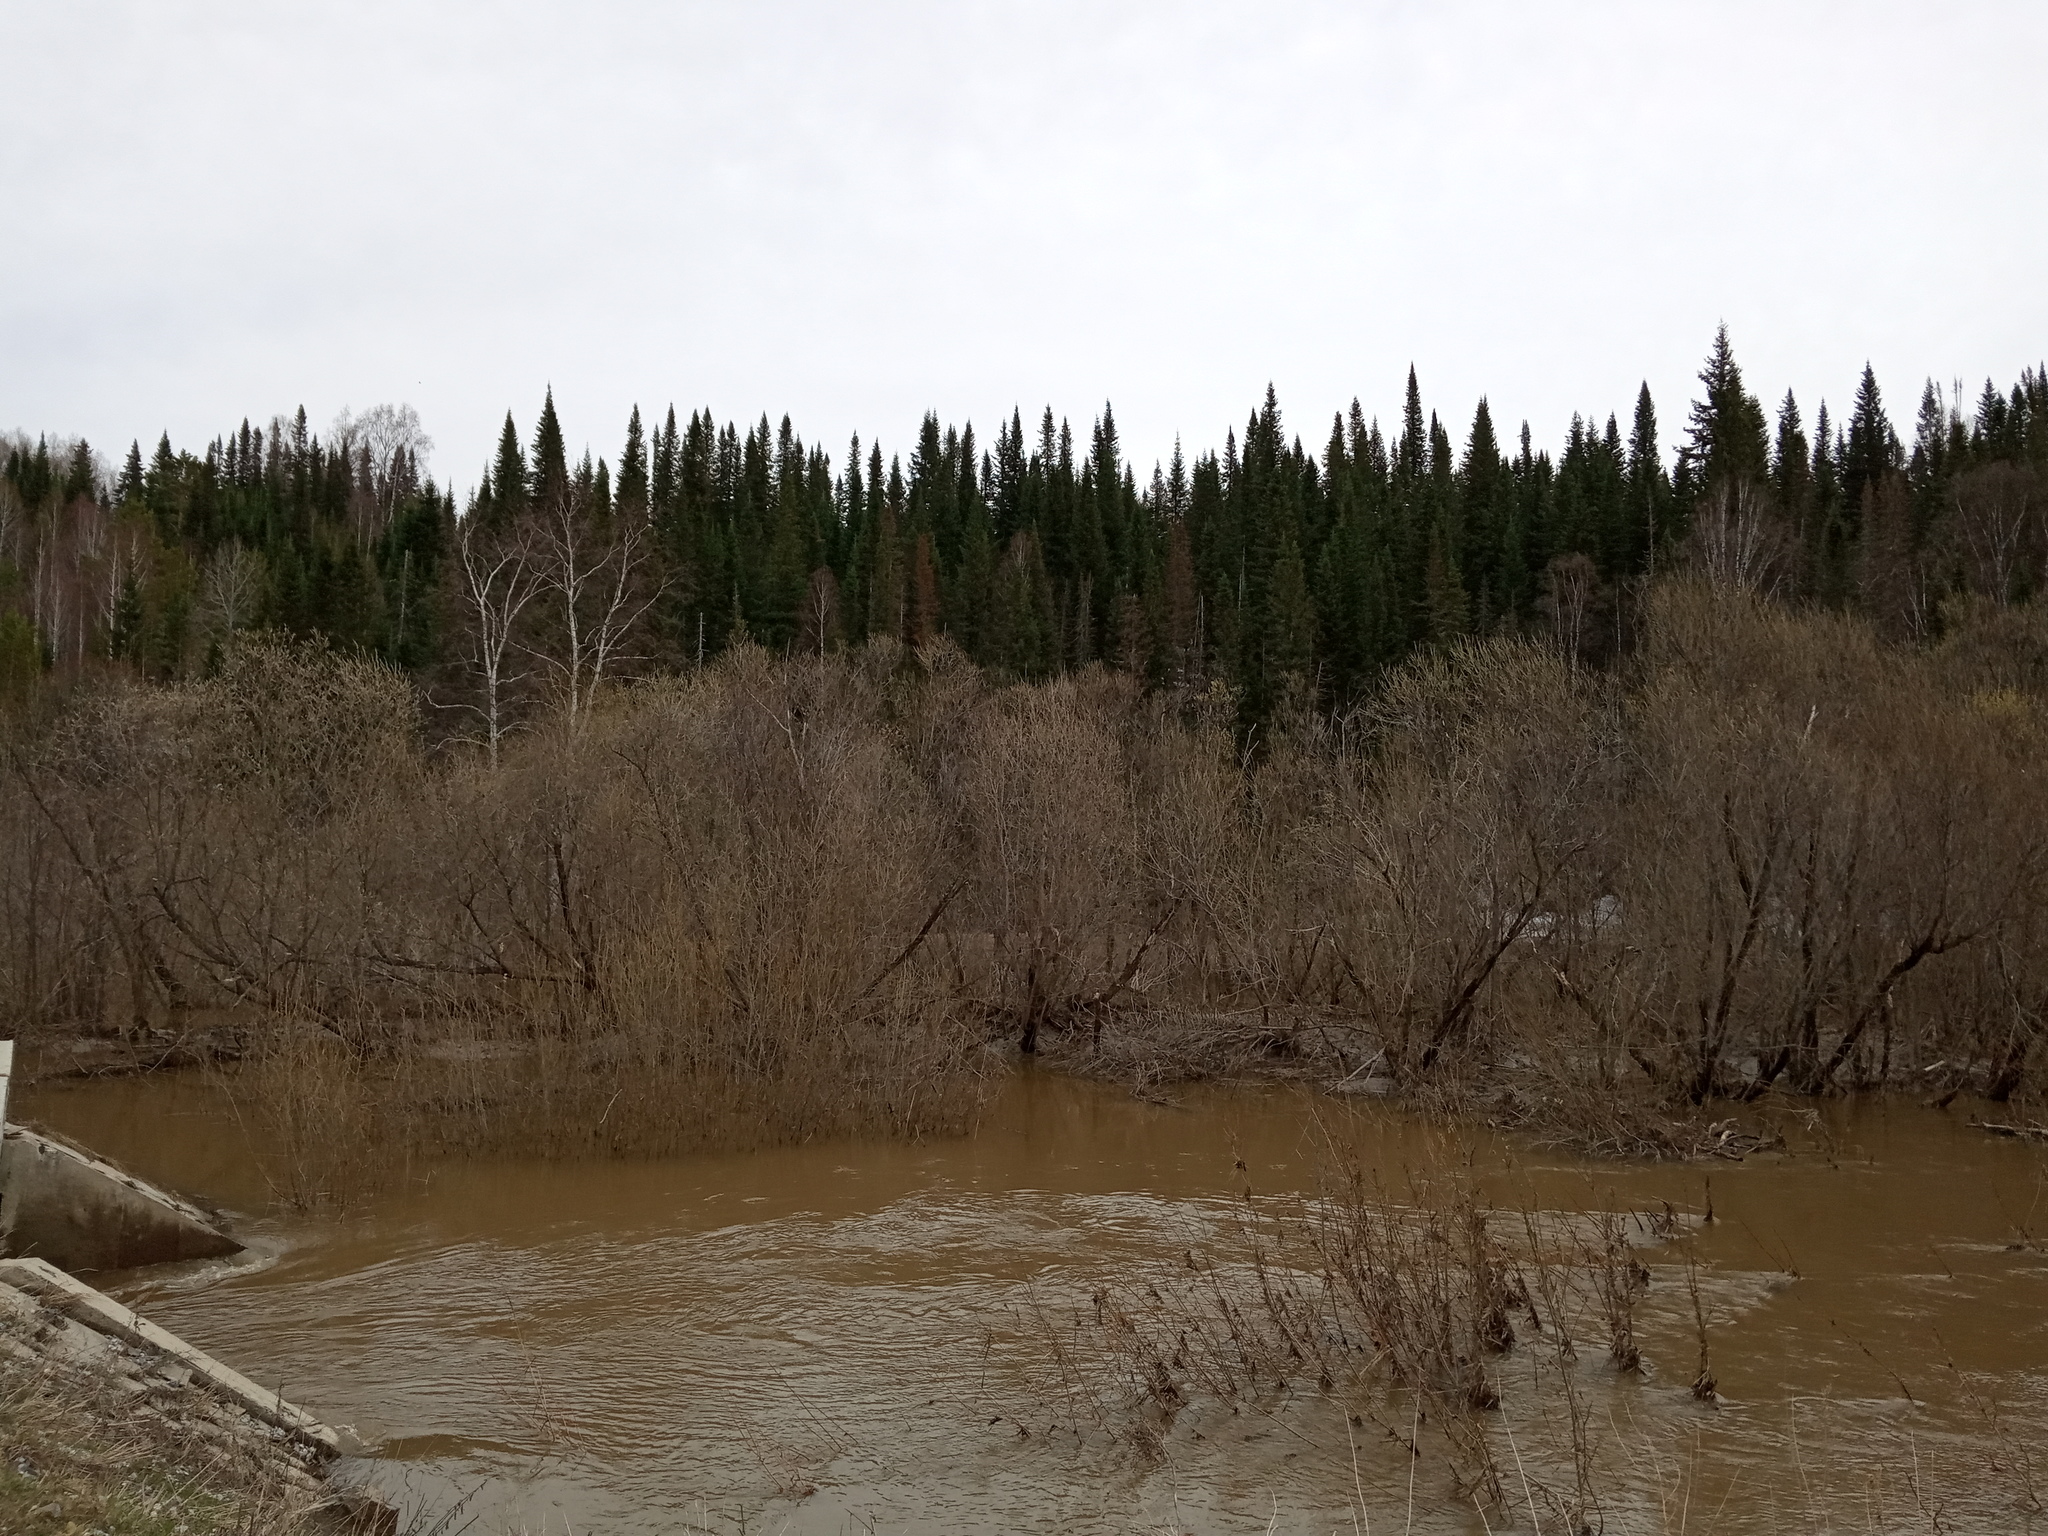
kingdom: Plantae
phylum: Tracheophyta
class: Pinopsida
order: Pinales
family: Pinaceae
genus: Abies
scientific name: Abies sibirica
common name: Siberian fir
